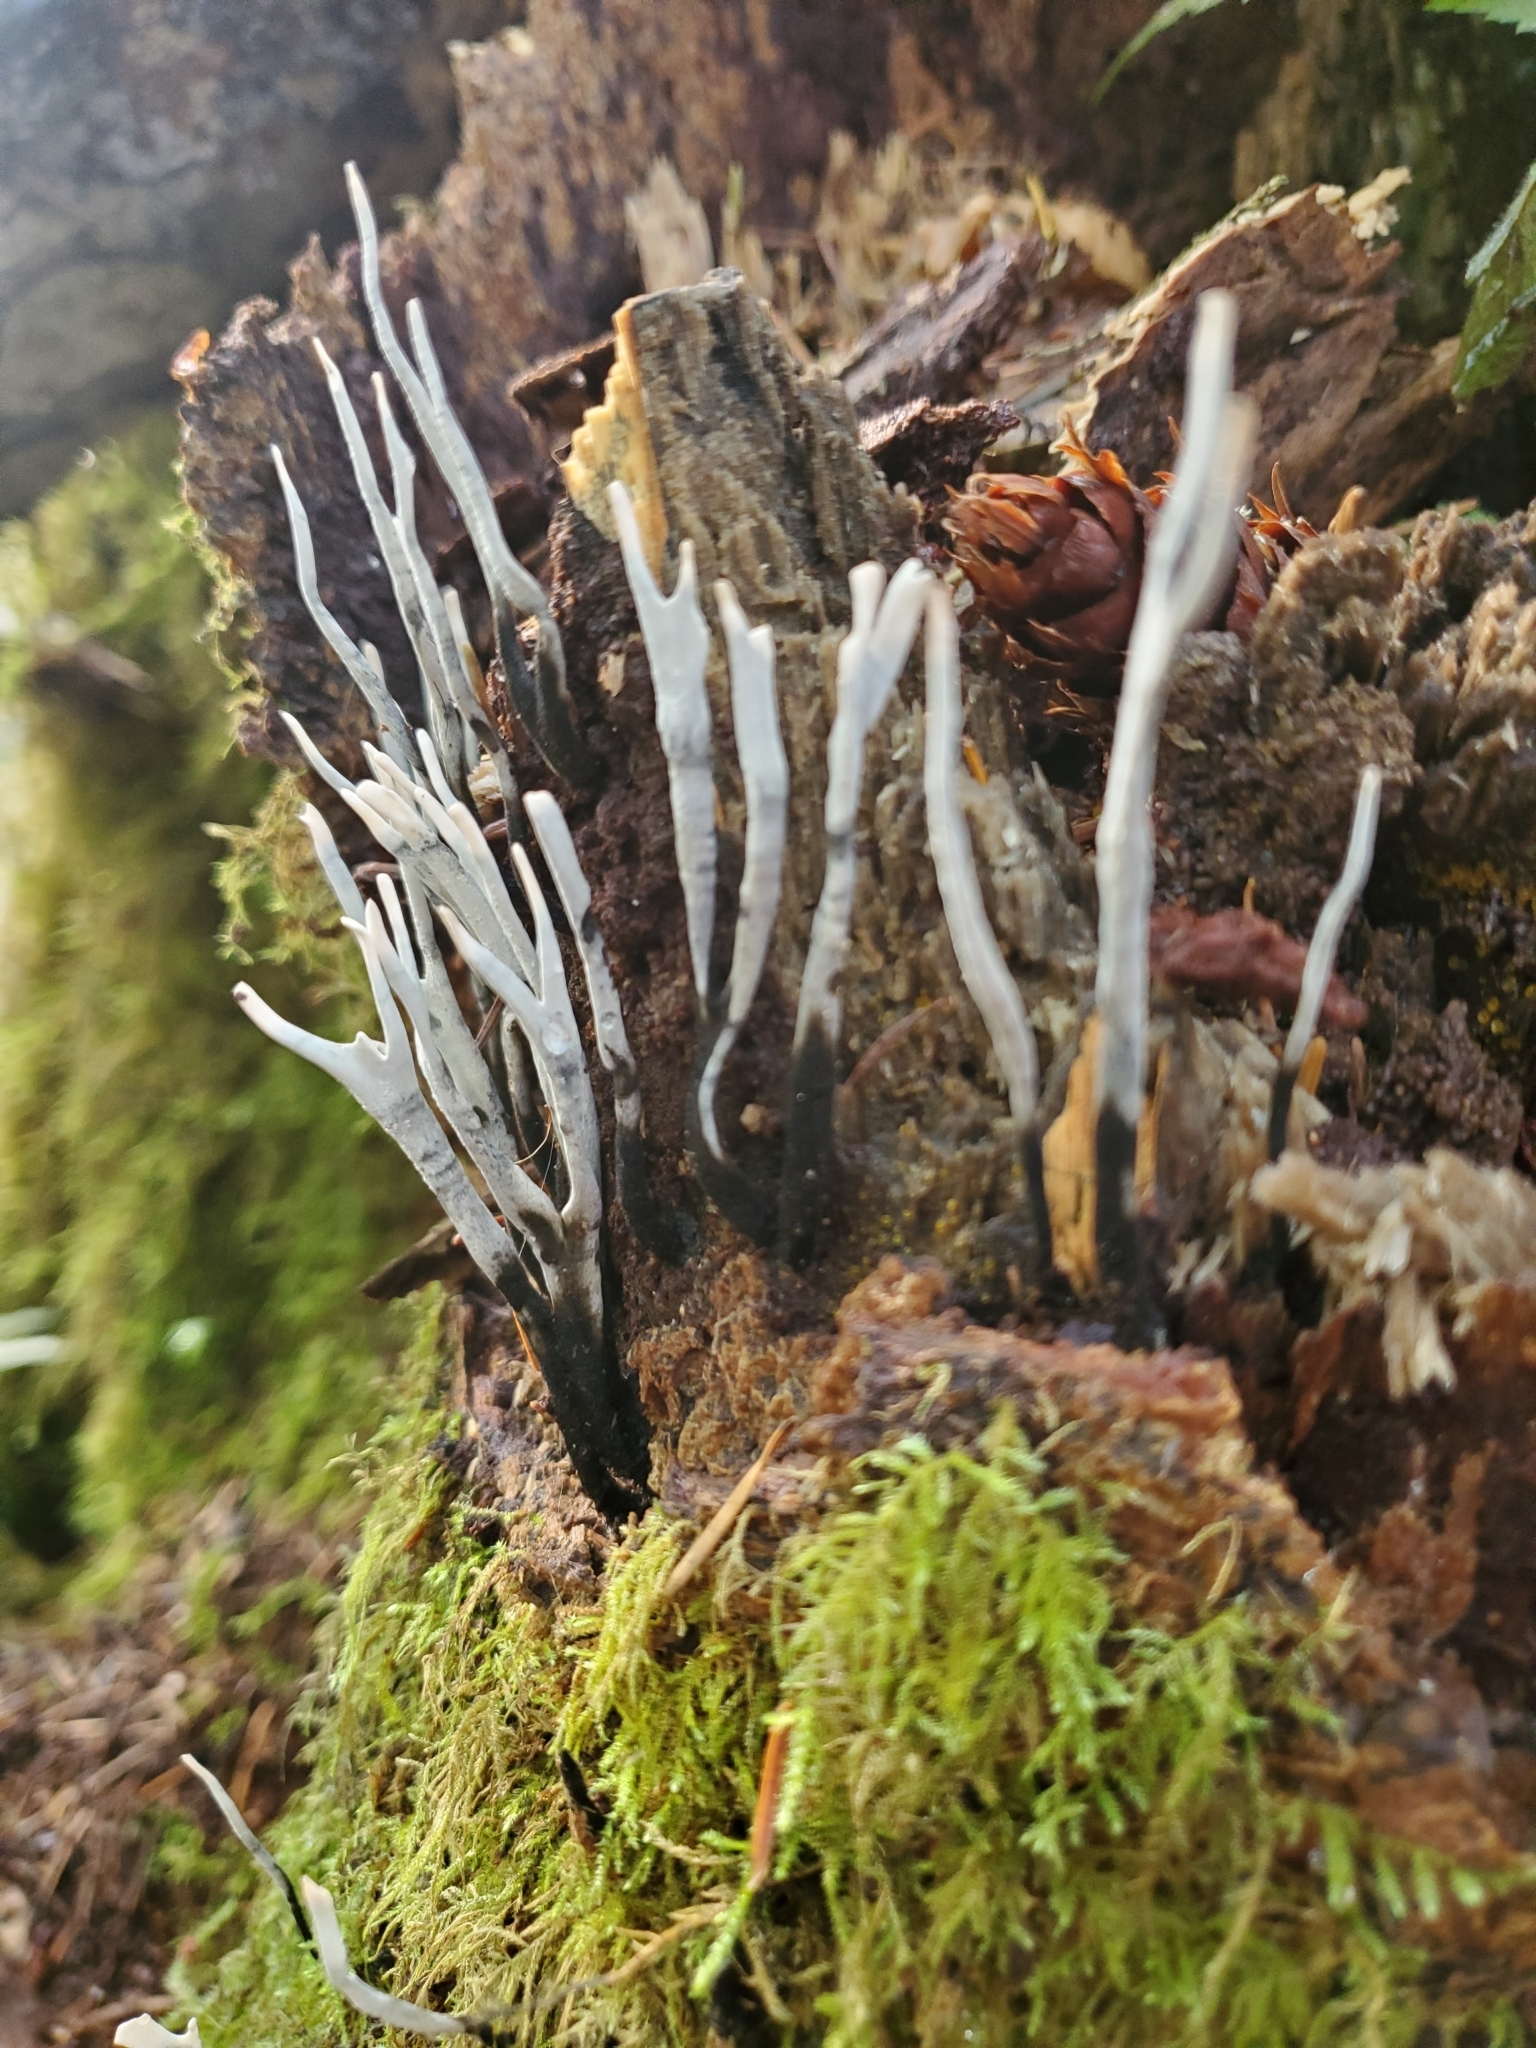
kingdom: Fungi
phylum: Ascomycota
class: Sordariomycetes
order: Xylariales
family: Xylariaceae
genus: Xylaria
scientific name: Xylaria hypoxylon
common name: Candle-snuff fungus
